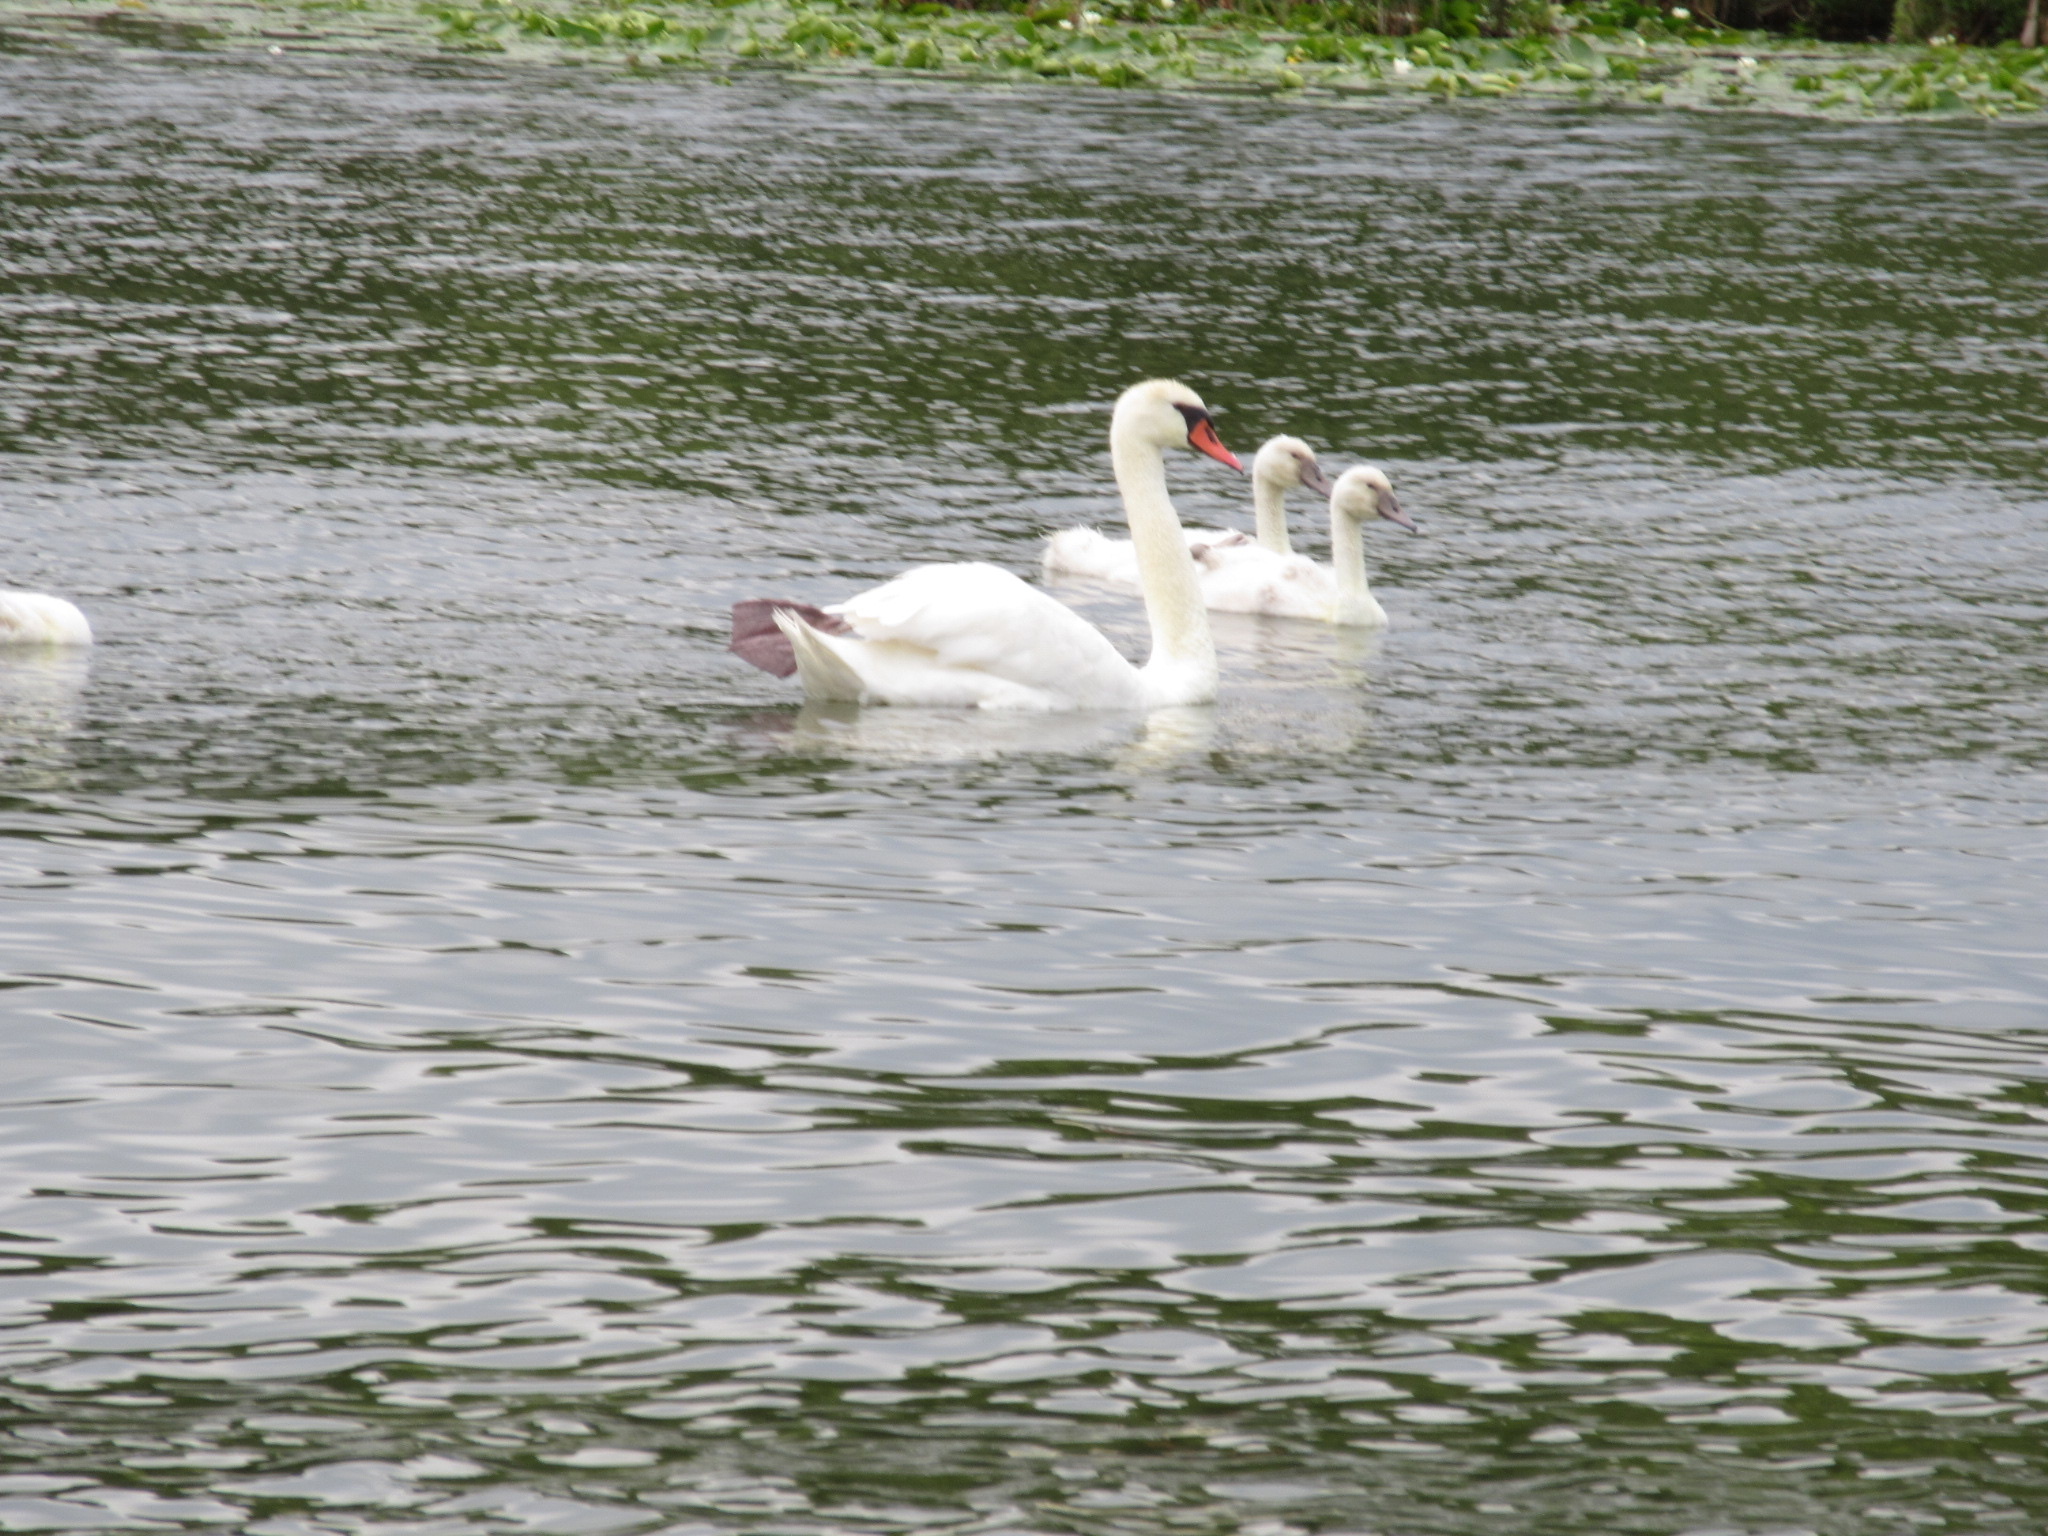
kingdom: Animalia
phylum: Chordata
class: Aves
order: Anseriformes
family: Anatidae
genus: Cygnus
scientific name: Cygnus olor
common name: Mute swan
